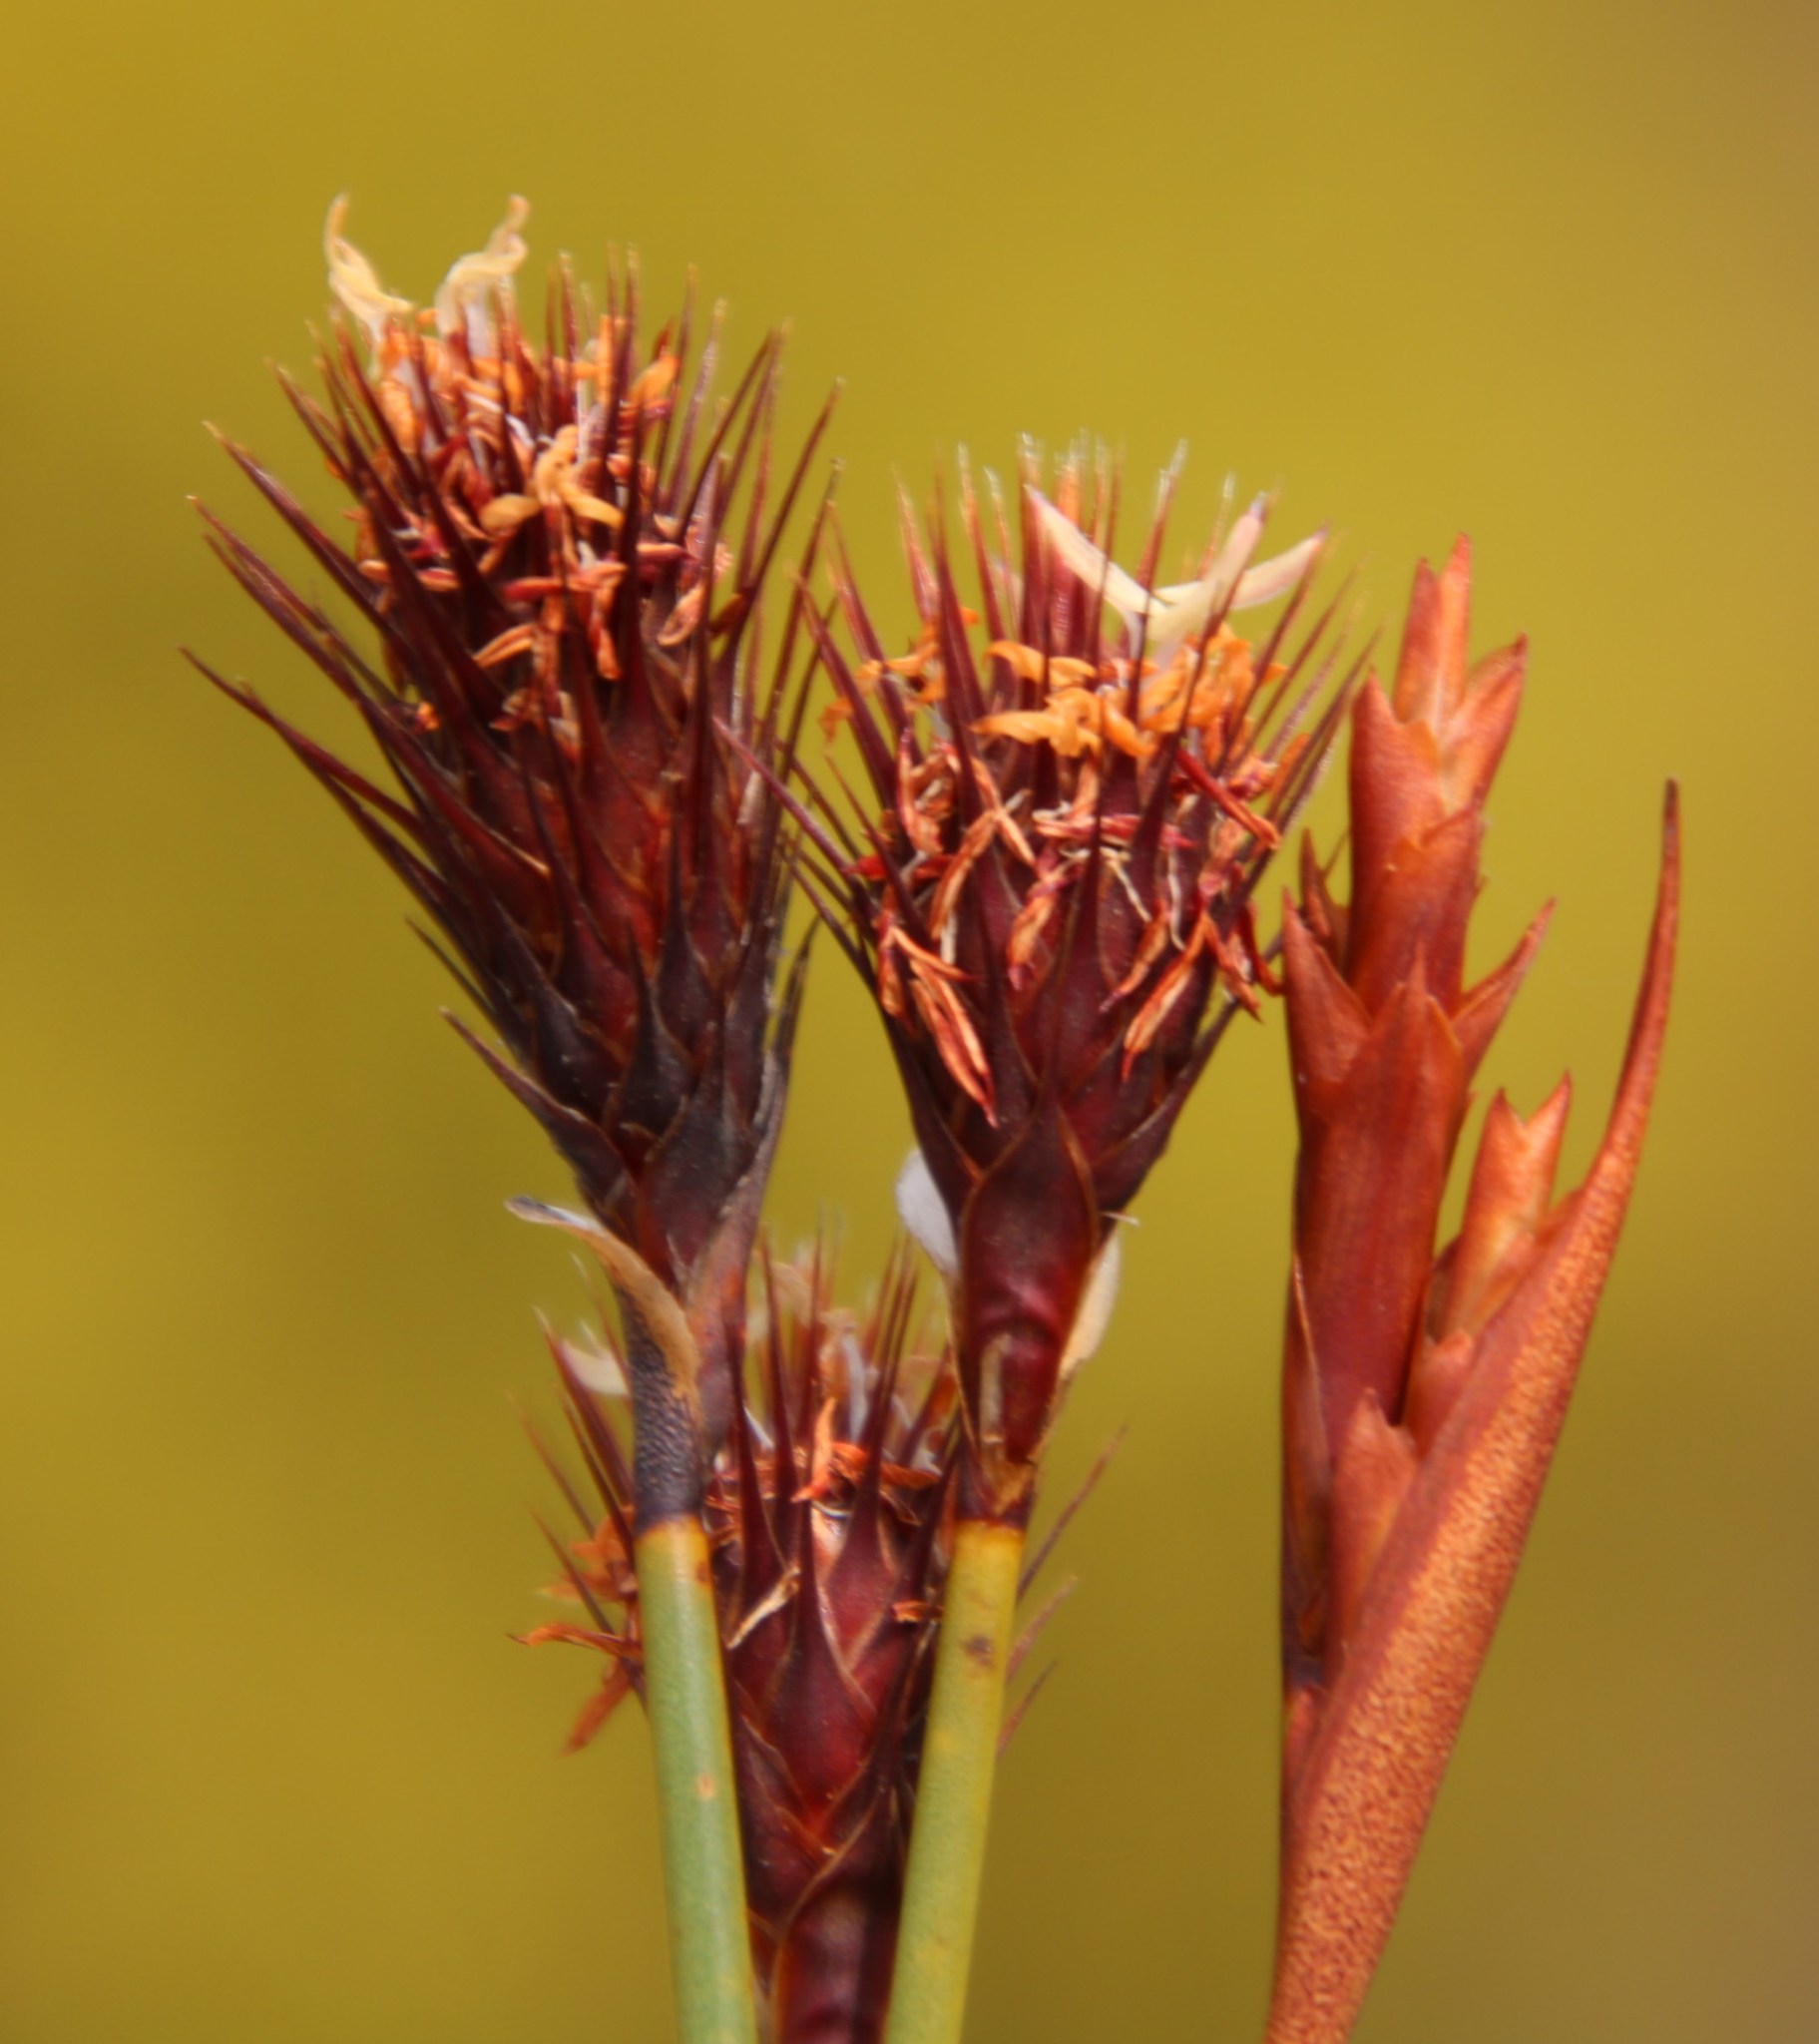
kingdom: Plantae
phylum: Tracheophyta
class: Liliopsida
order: Poales
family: Restionaceae
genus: Staberoha
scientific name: Staberoha cernua
